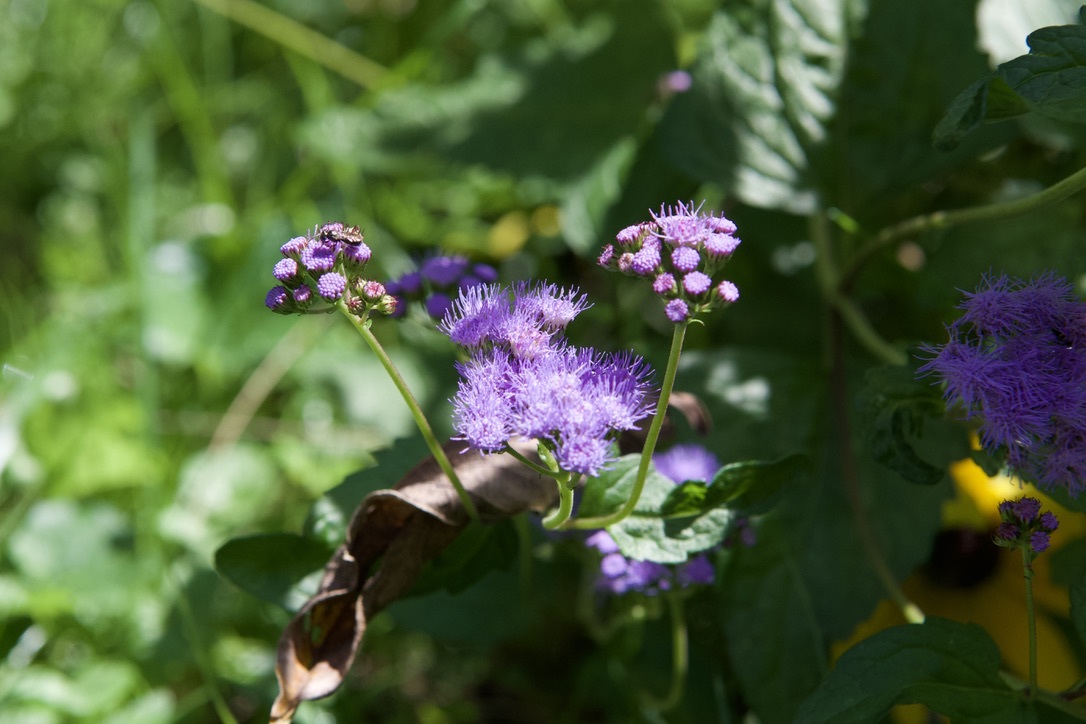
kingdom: Plantae
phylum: Tracheophyta
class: Magnoliopsida
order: Asterales
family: Asteraceae
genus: Conoclinium
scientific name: Conoclinium coelestinum
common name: Blue mistflower
